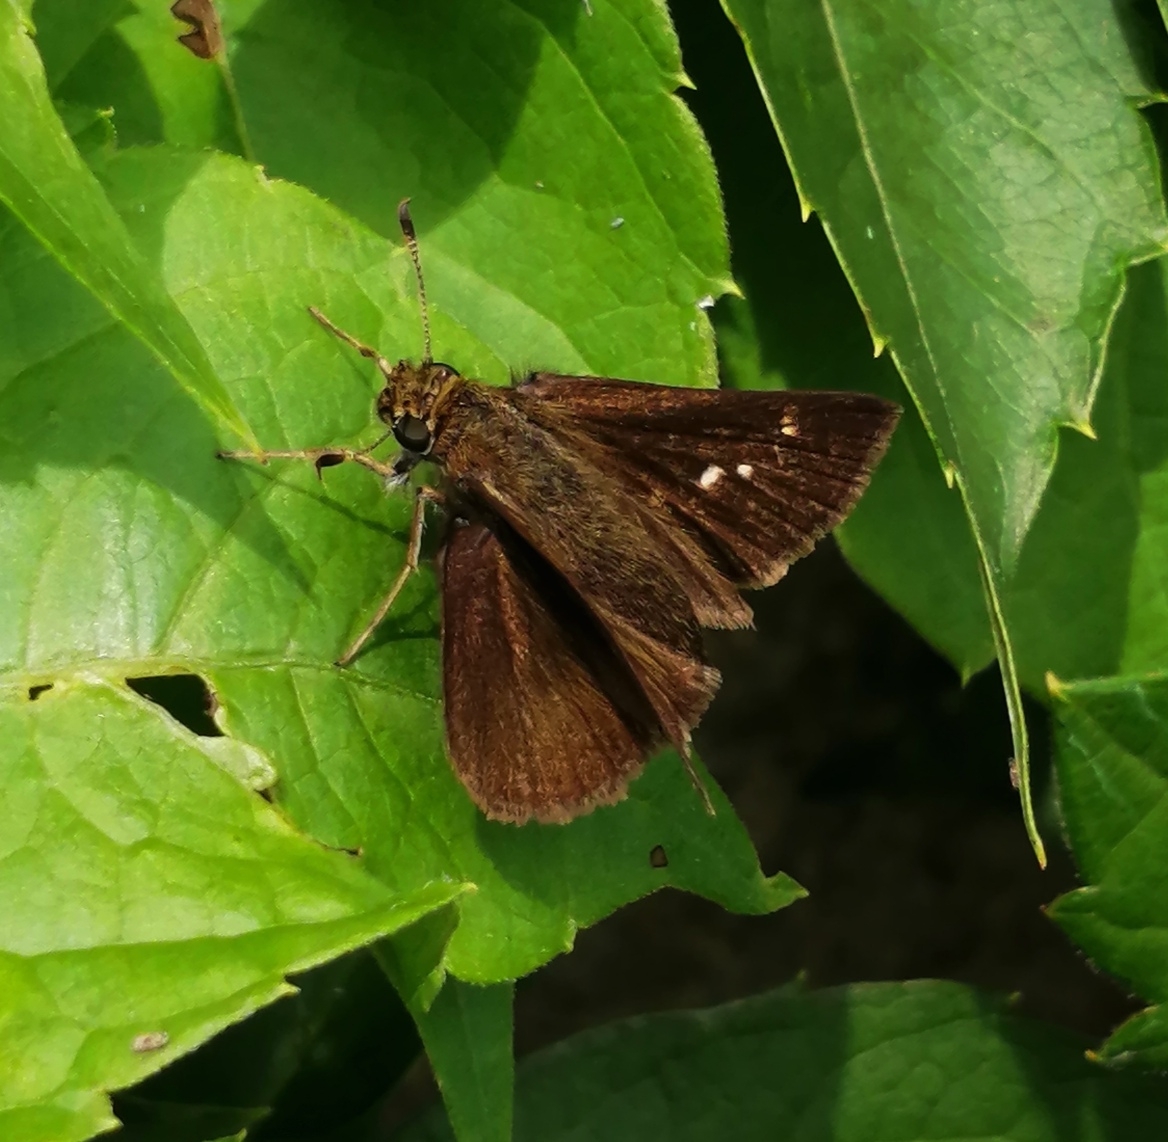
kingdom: Animalia
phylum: Arthropoda
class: Insecta
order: Lepidoptera
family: Hesperiidae
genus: Euphyes
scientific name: Euphyes vestris
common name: Dun skipper
